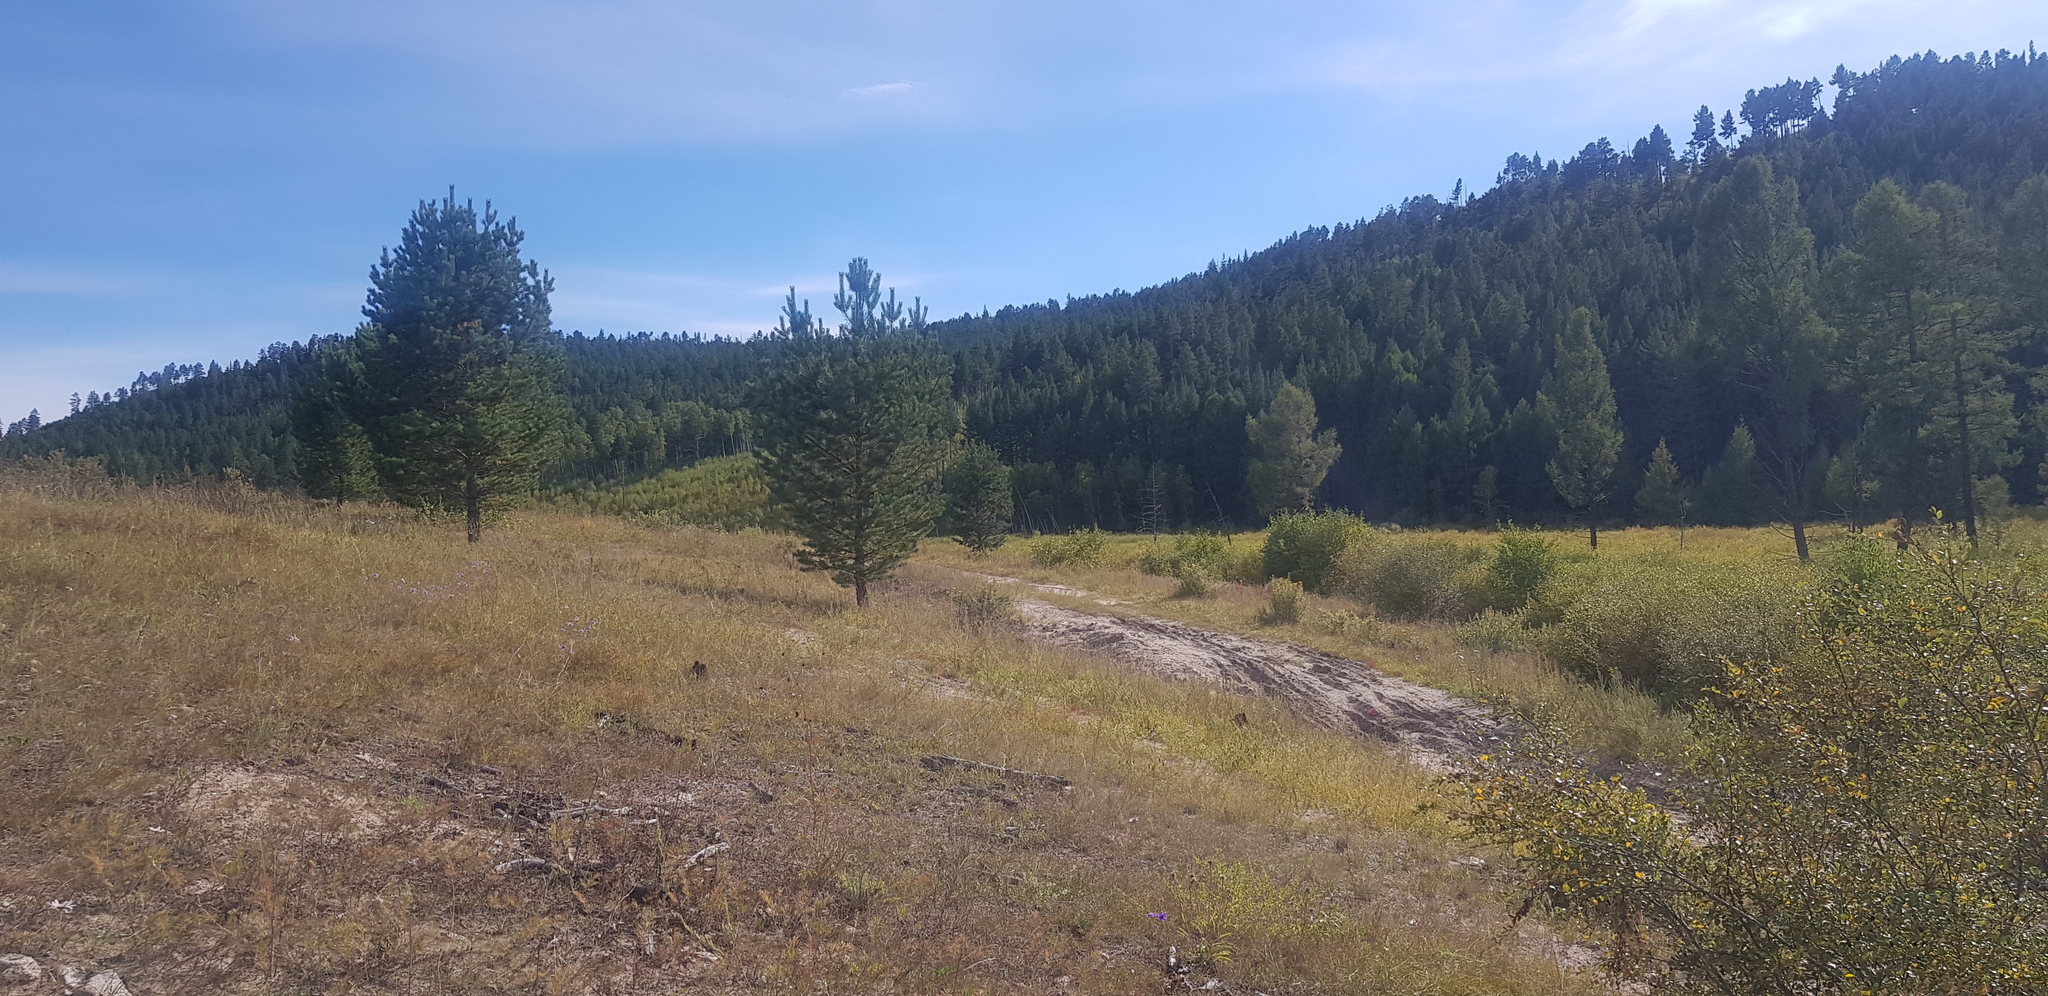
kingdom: Plantae
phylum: Tracheophyta
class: Pinopsida
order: Pinales
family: Pinaceae
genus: Pinus
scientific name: Pinus sylvestris
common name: Scots pine
